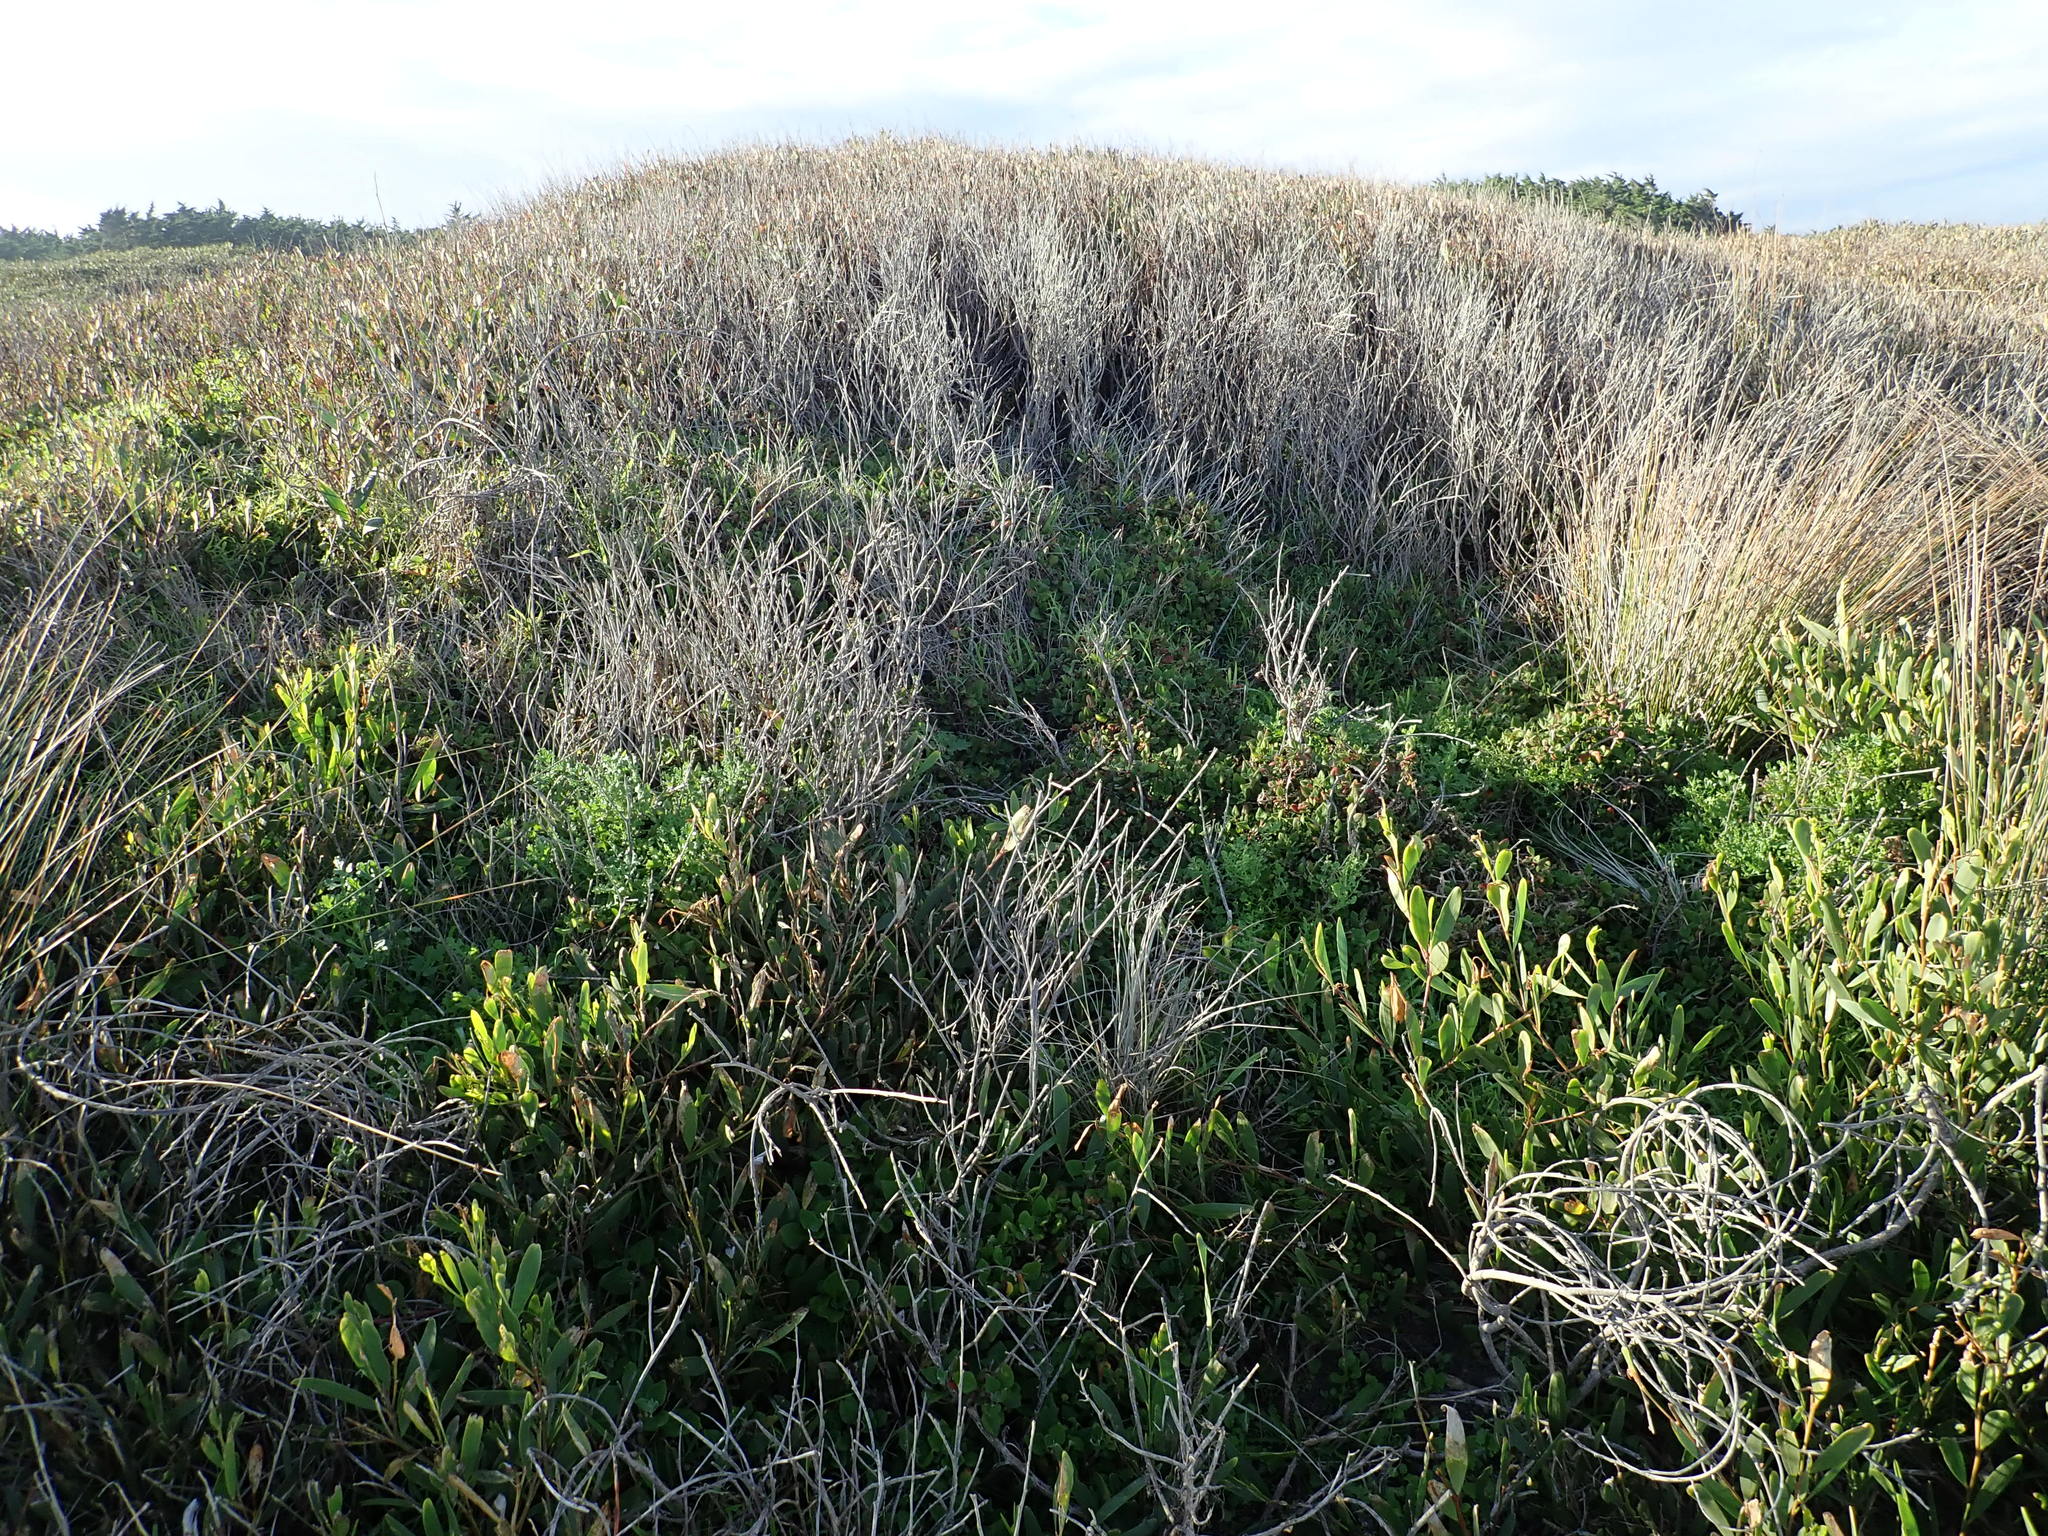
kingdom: Plantae
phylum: Tracheophyta
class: Magnoliopsida
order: Caryophyllales
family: Aizoaceae
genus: Tetragonia
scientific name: Tetragonia implexicoma
